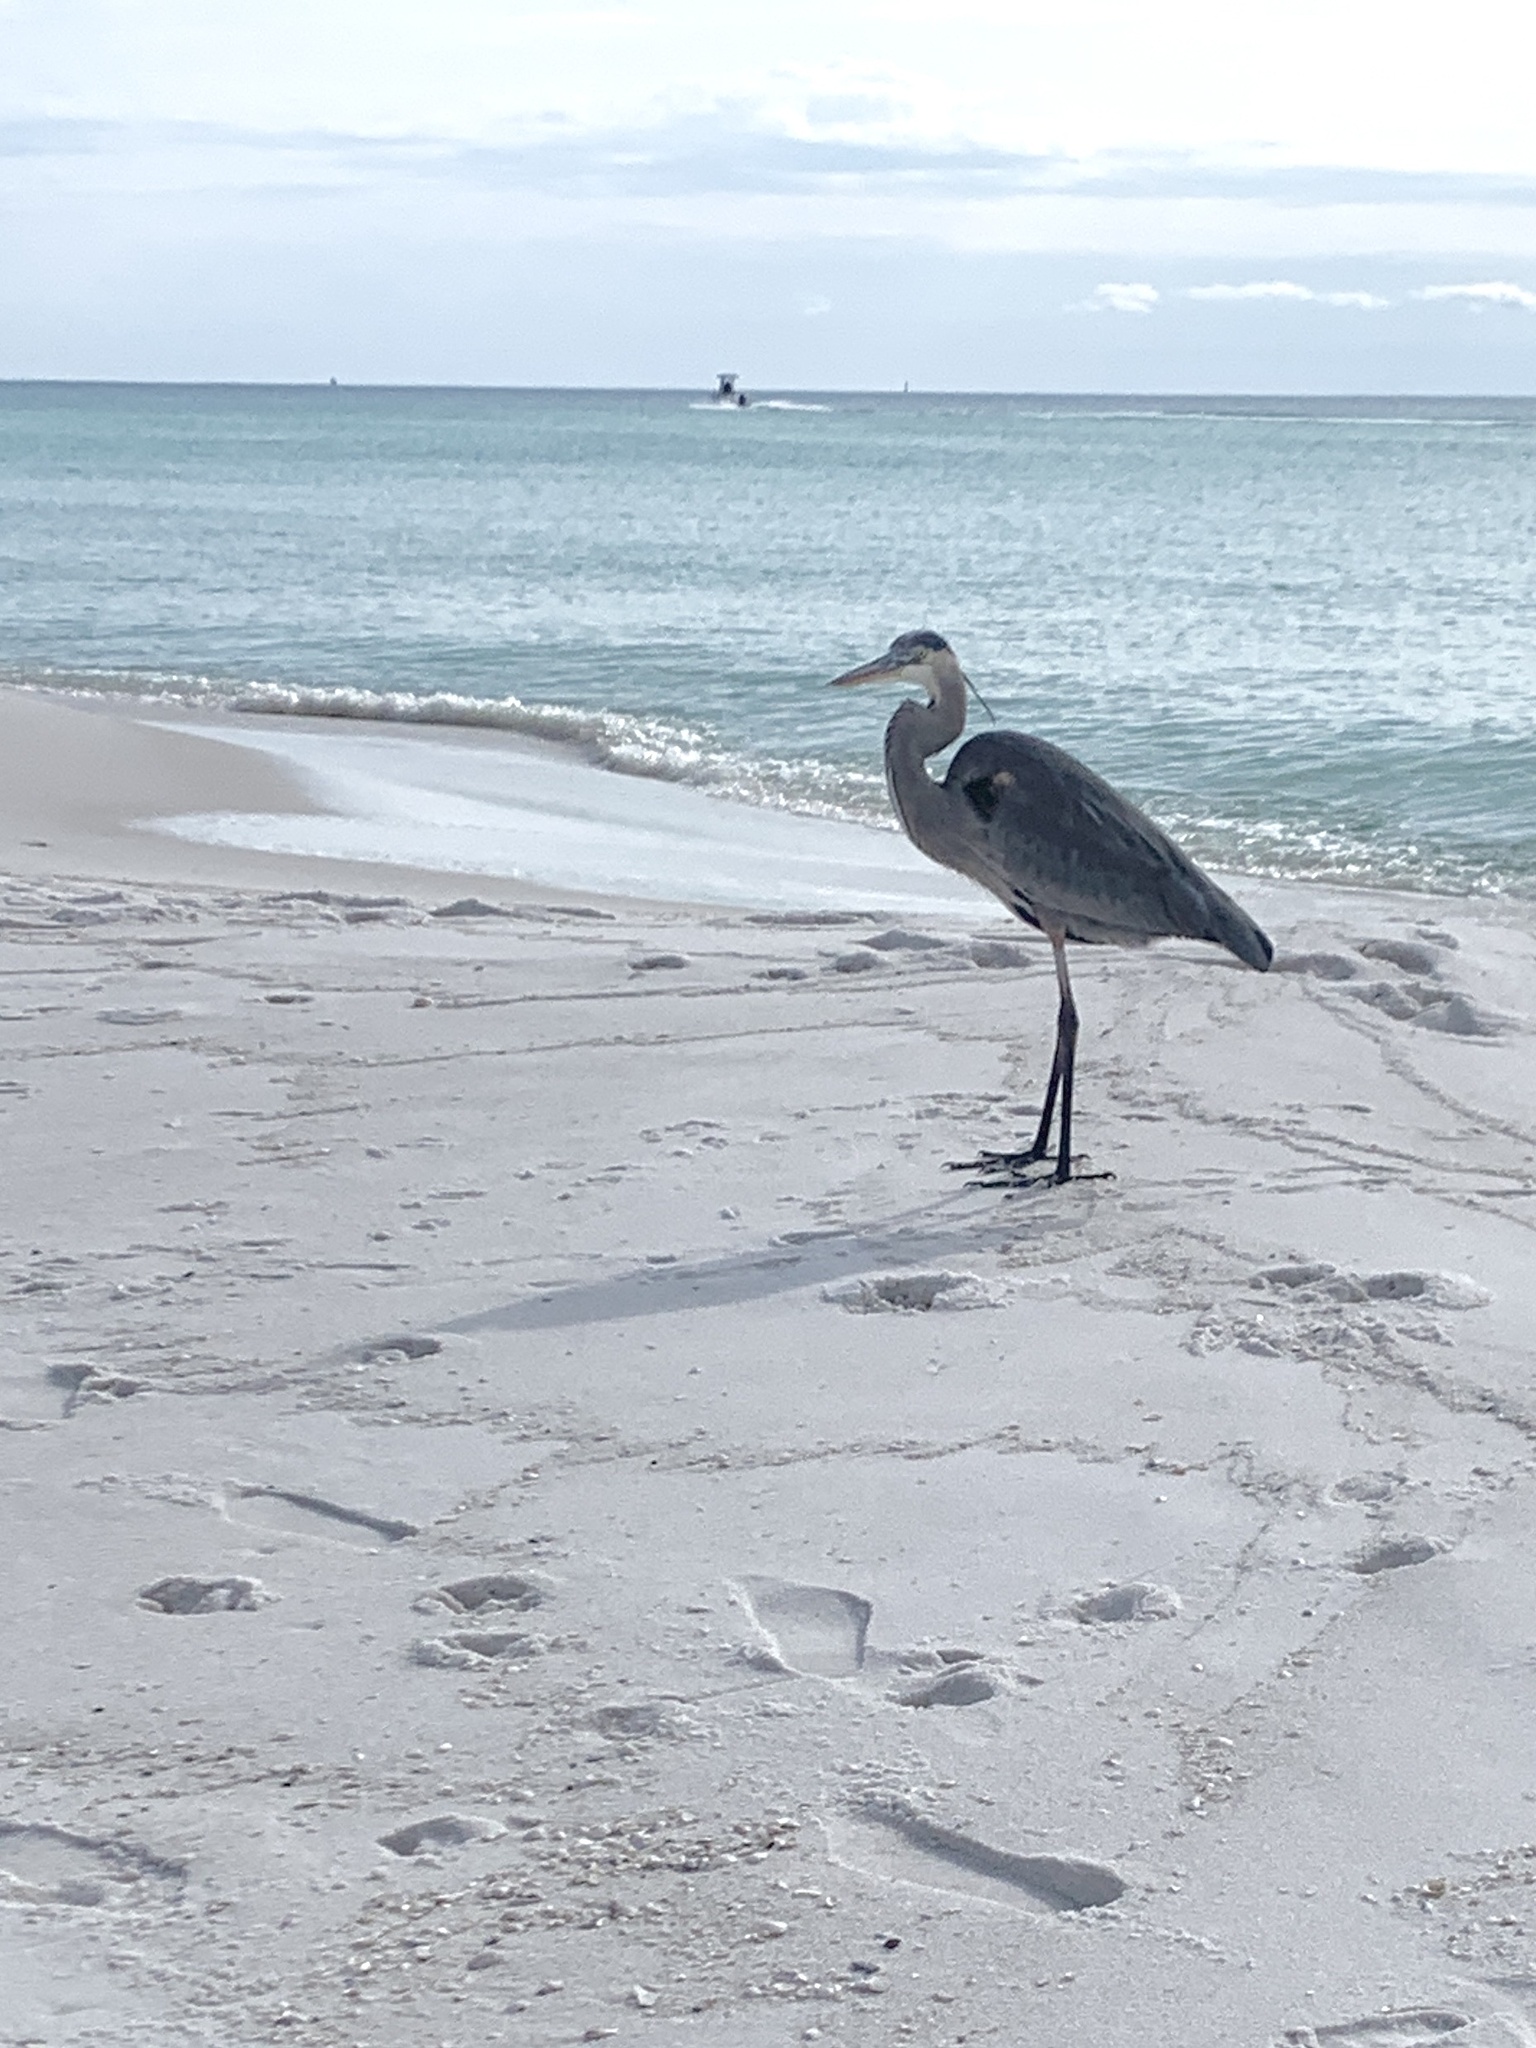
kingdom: Animalia
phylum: Chordata
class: Aves
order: Pelecaniformes
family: Ardeidae
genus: Ardea
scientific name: Ardea herodias
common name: Great blue heron
